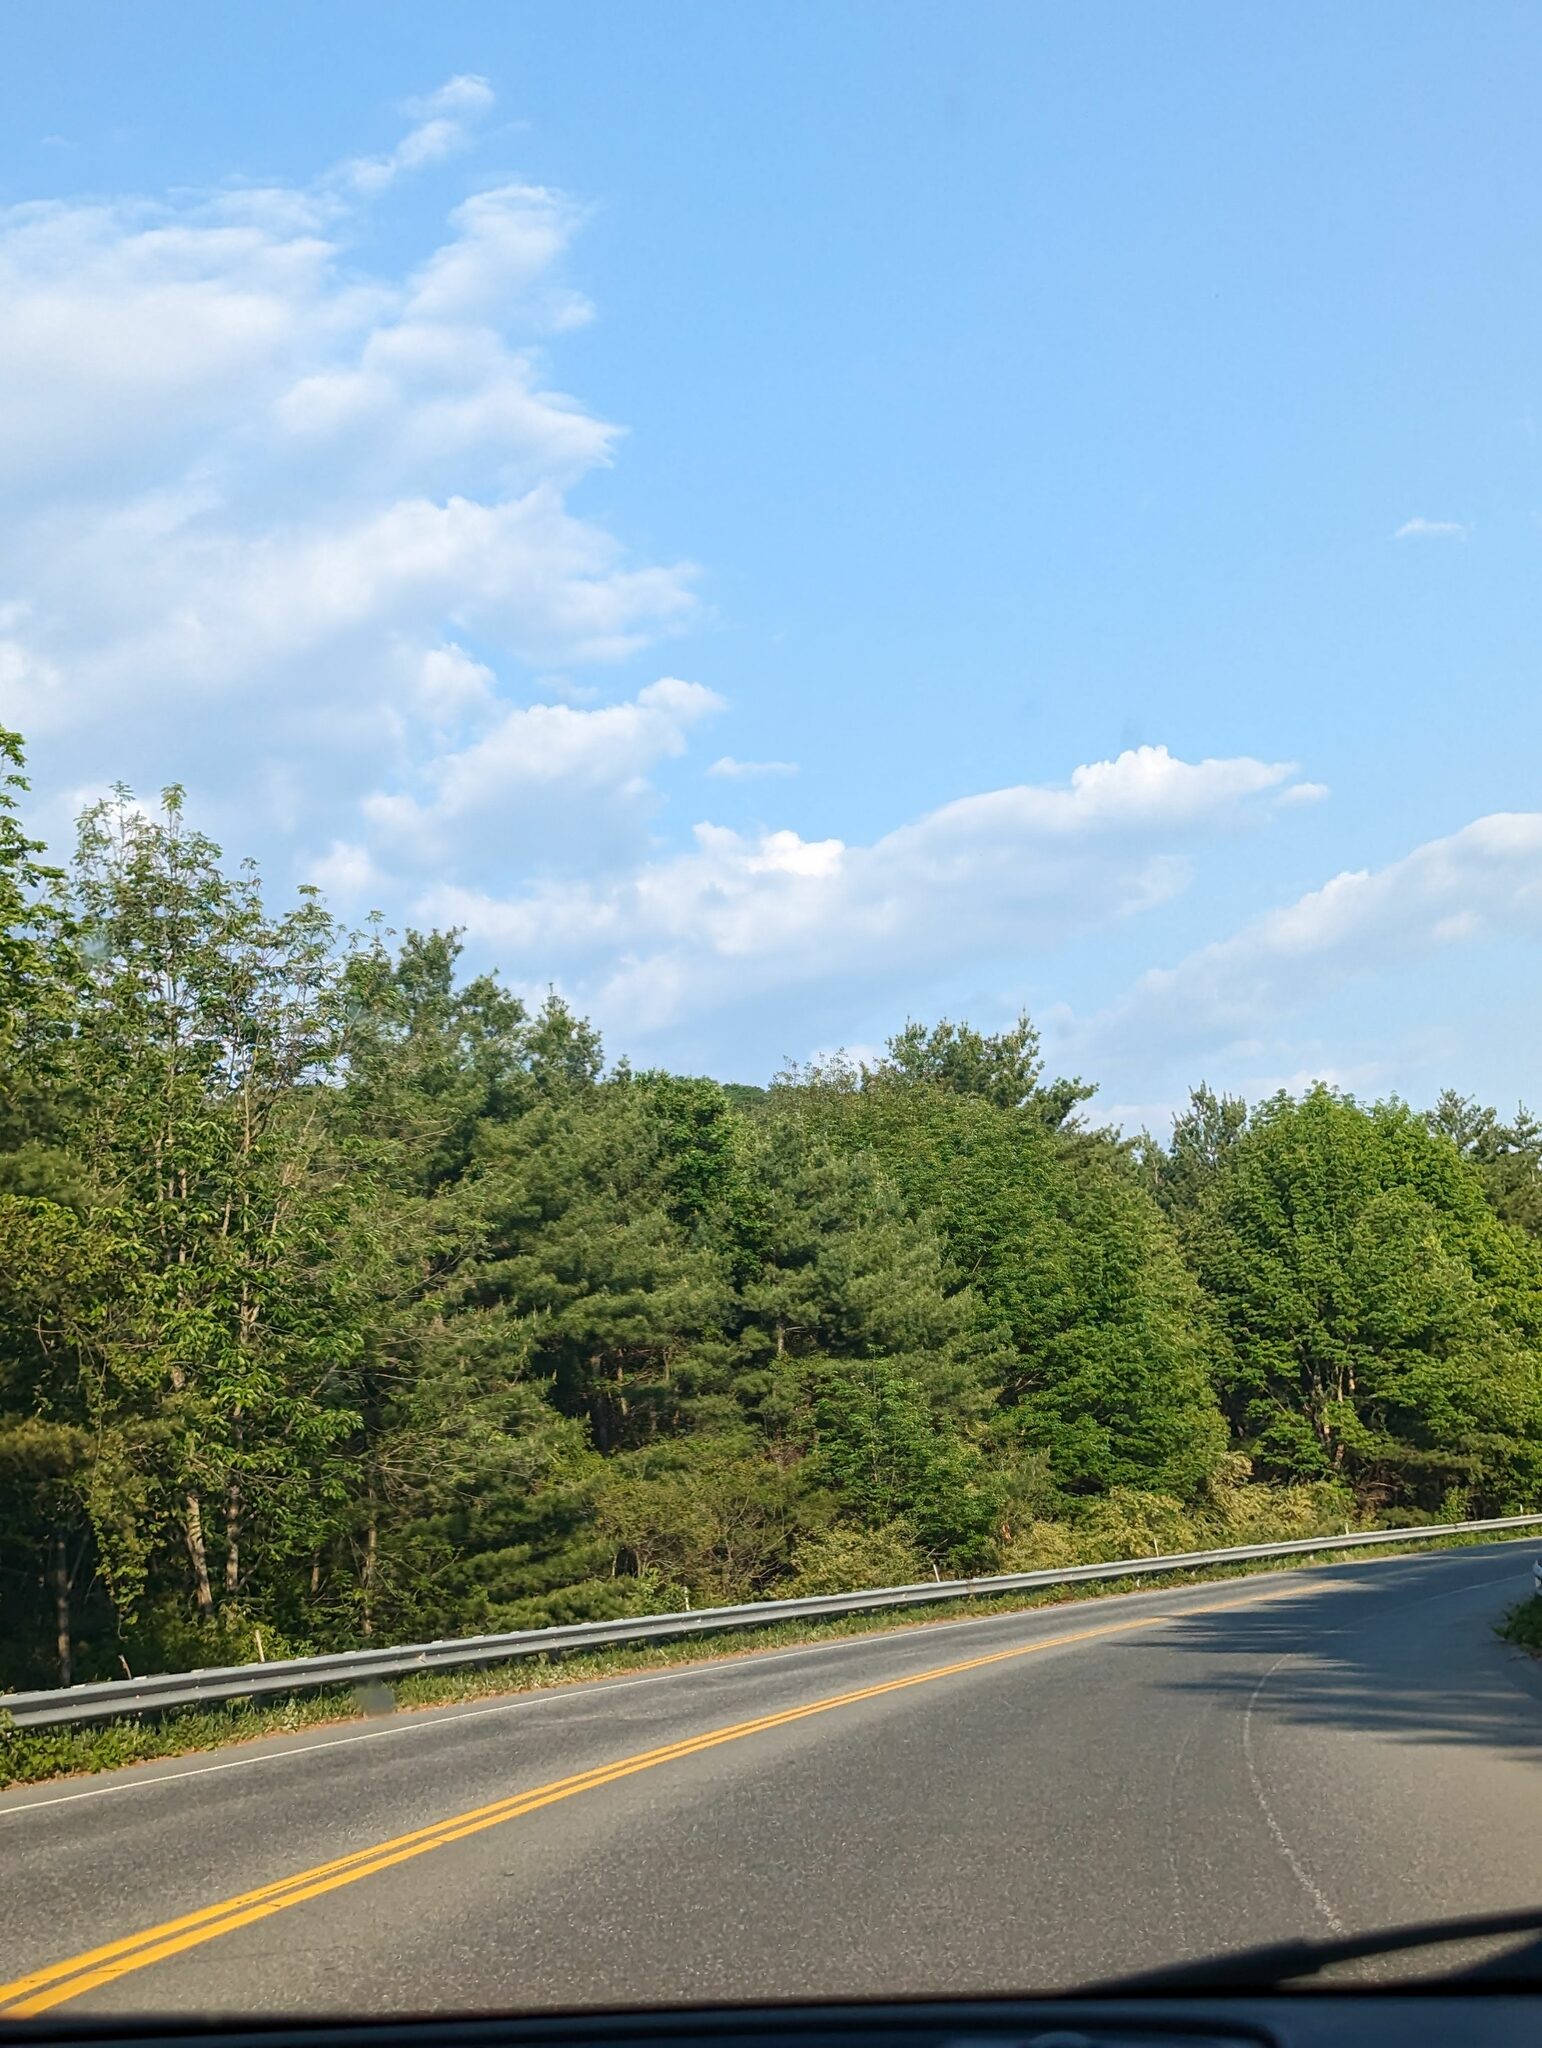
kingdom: Plantae
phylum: Tracheophyta
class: Pinopsida
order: Pinales
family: Pinaceae
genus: Pinus
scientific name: Pinus strobus
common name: Weymouth pine
